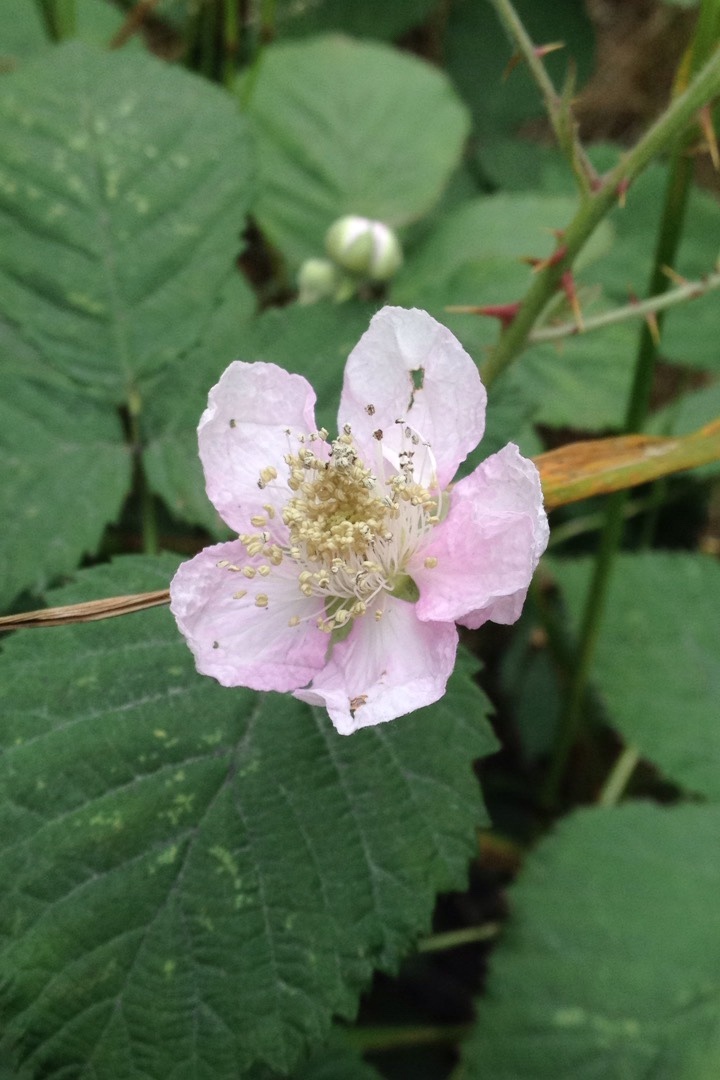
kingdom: Plantae
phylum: Tracheophyta
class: Magnoliopsida
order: Rosales
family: Rosaceae
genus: Rubus
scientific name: Rubus armeniacus
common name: Himalayan blackberry
